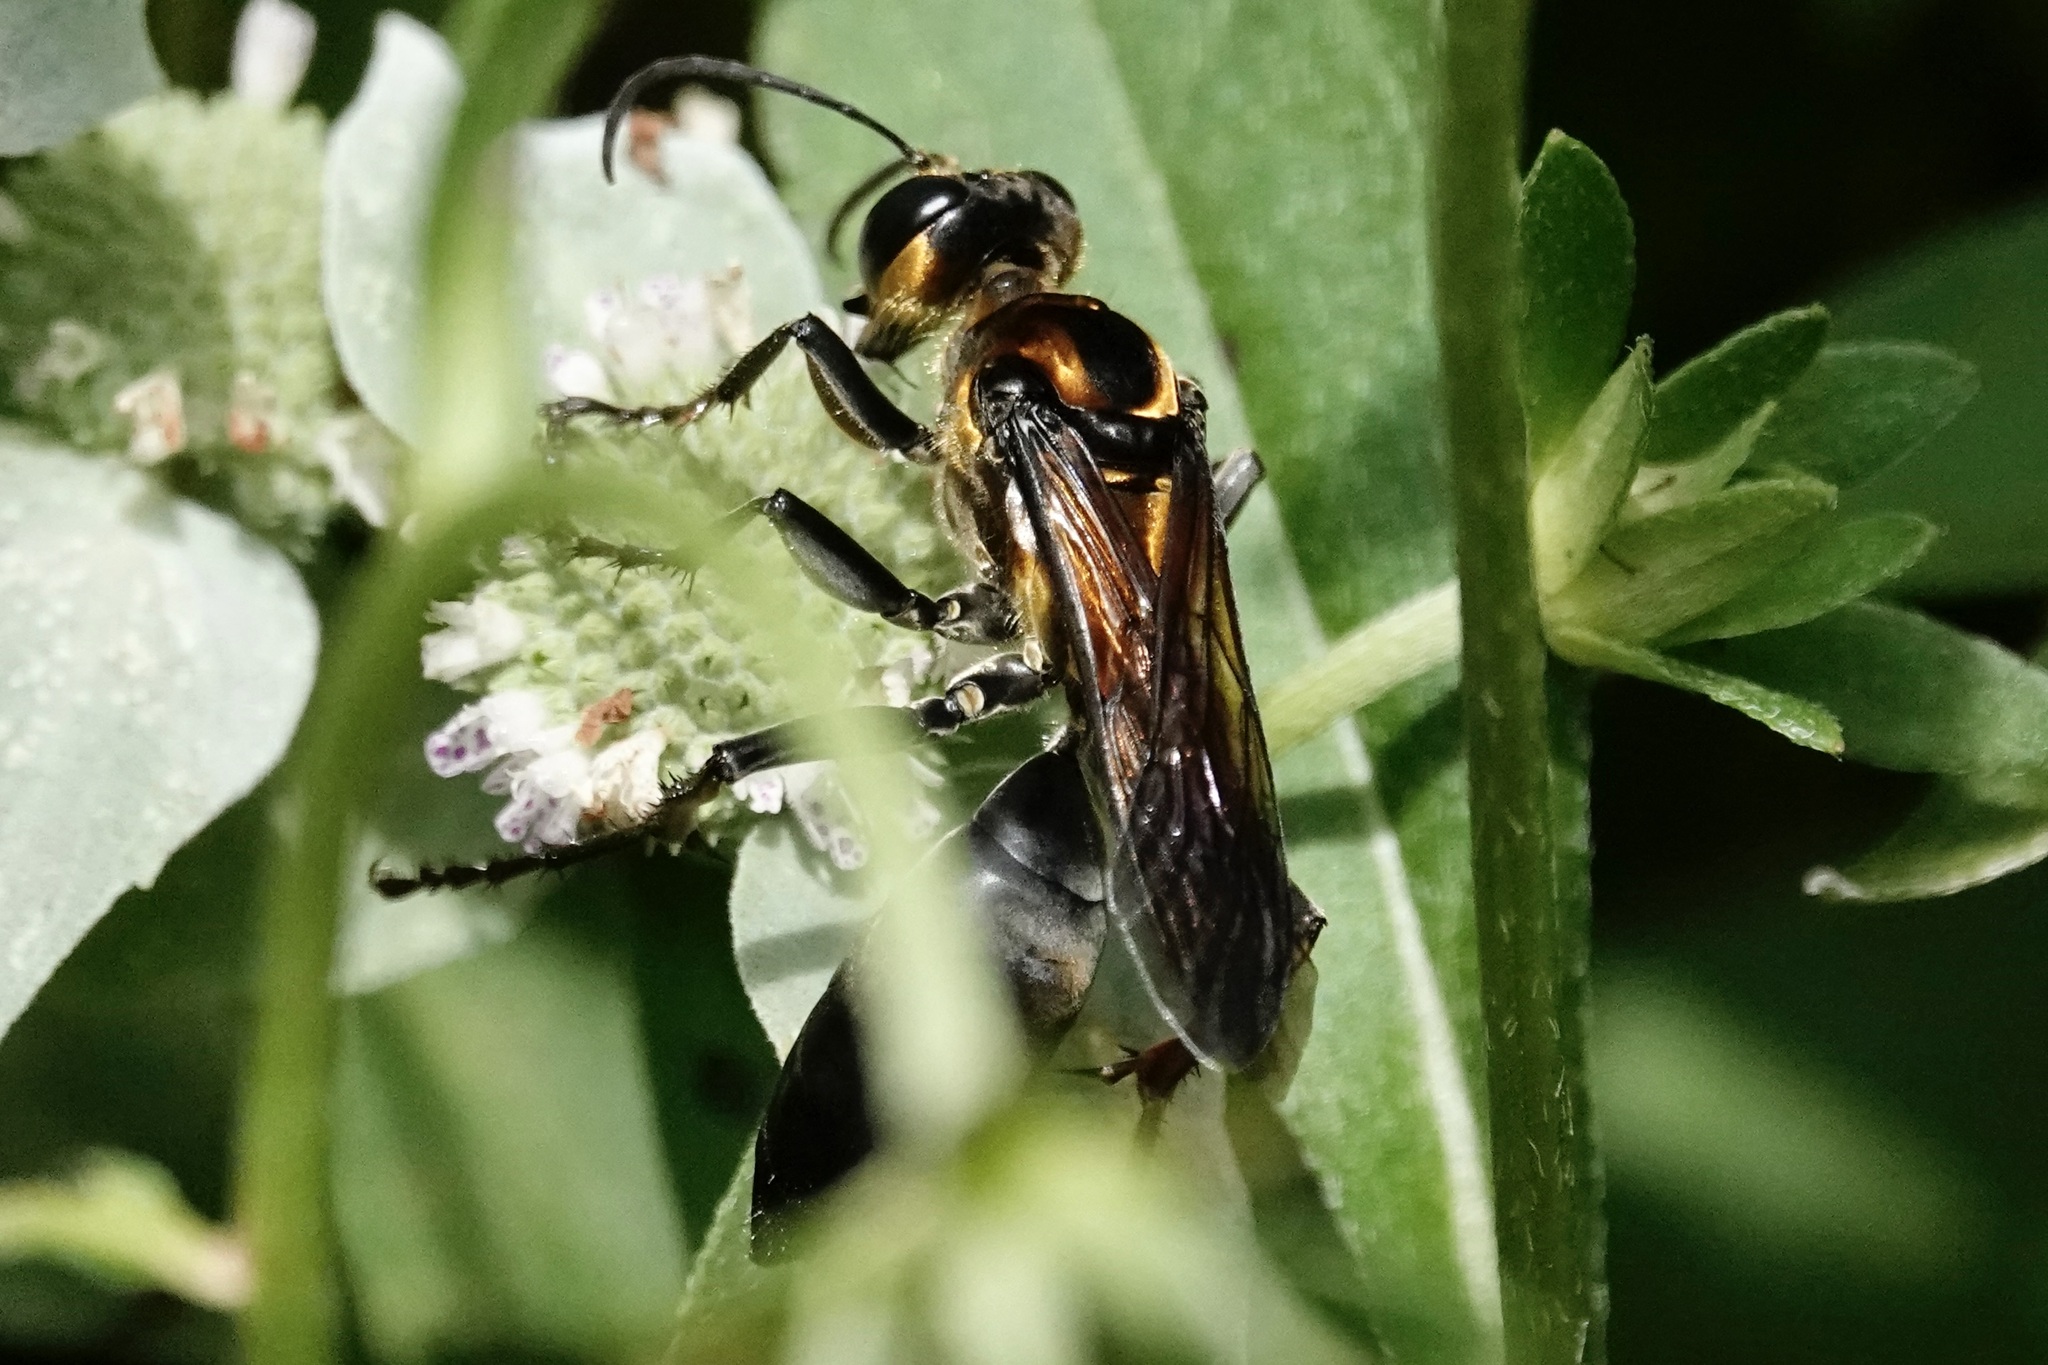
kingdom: Animalia
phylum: Arthropoda
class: Insecta
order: Hymenoptera
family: Sphecidae
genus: Sphex
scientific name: Sphex habenus
